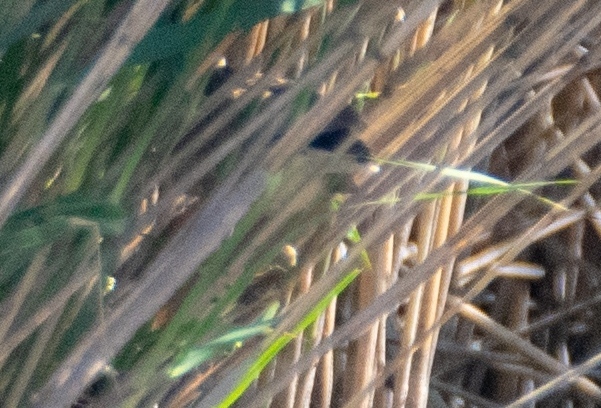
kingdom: Animalia
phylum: Chordata
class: Aves
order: Pelecaniformes
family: Ardeidae
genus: Ixobrychus
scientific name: Ixobrychus minutus
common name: Little bittern
